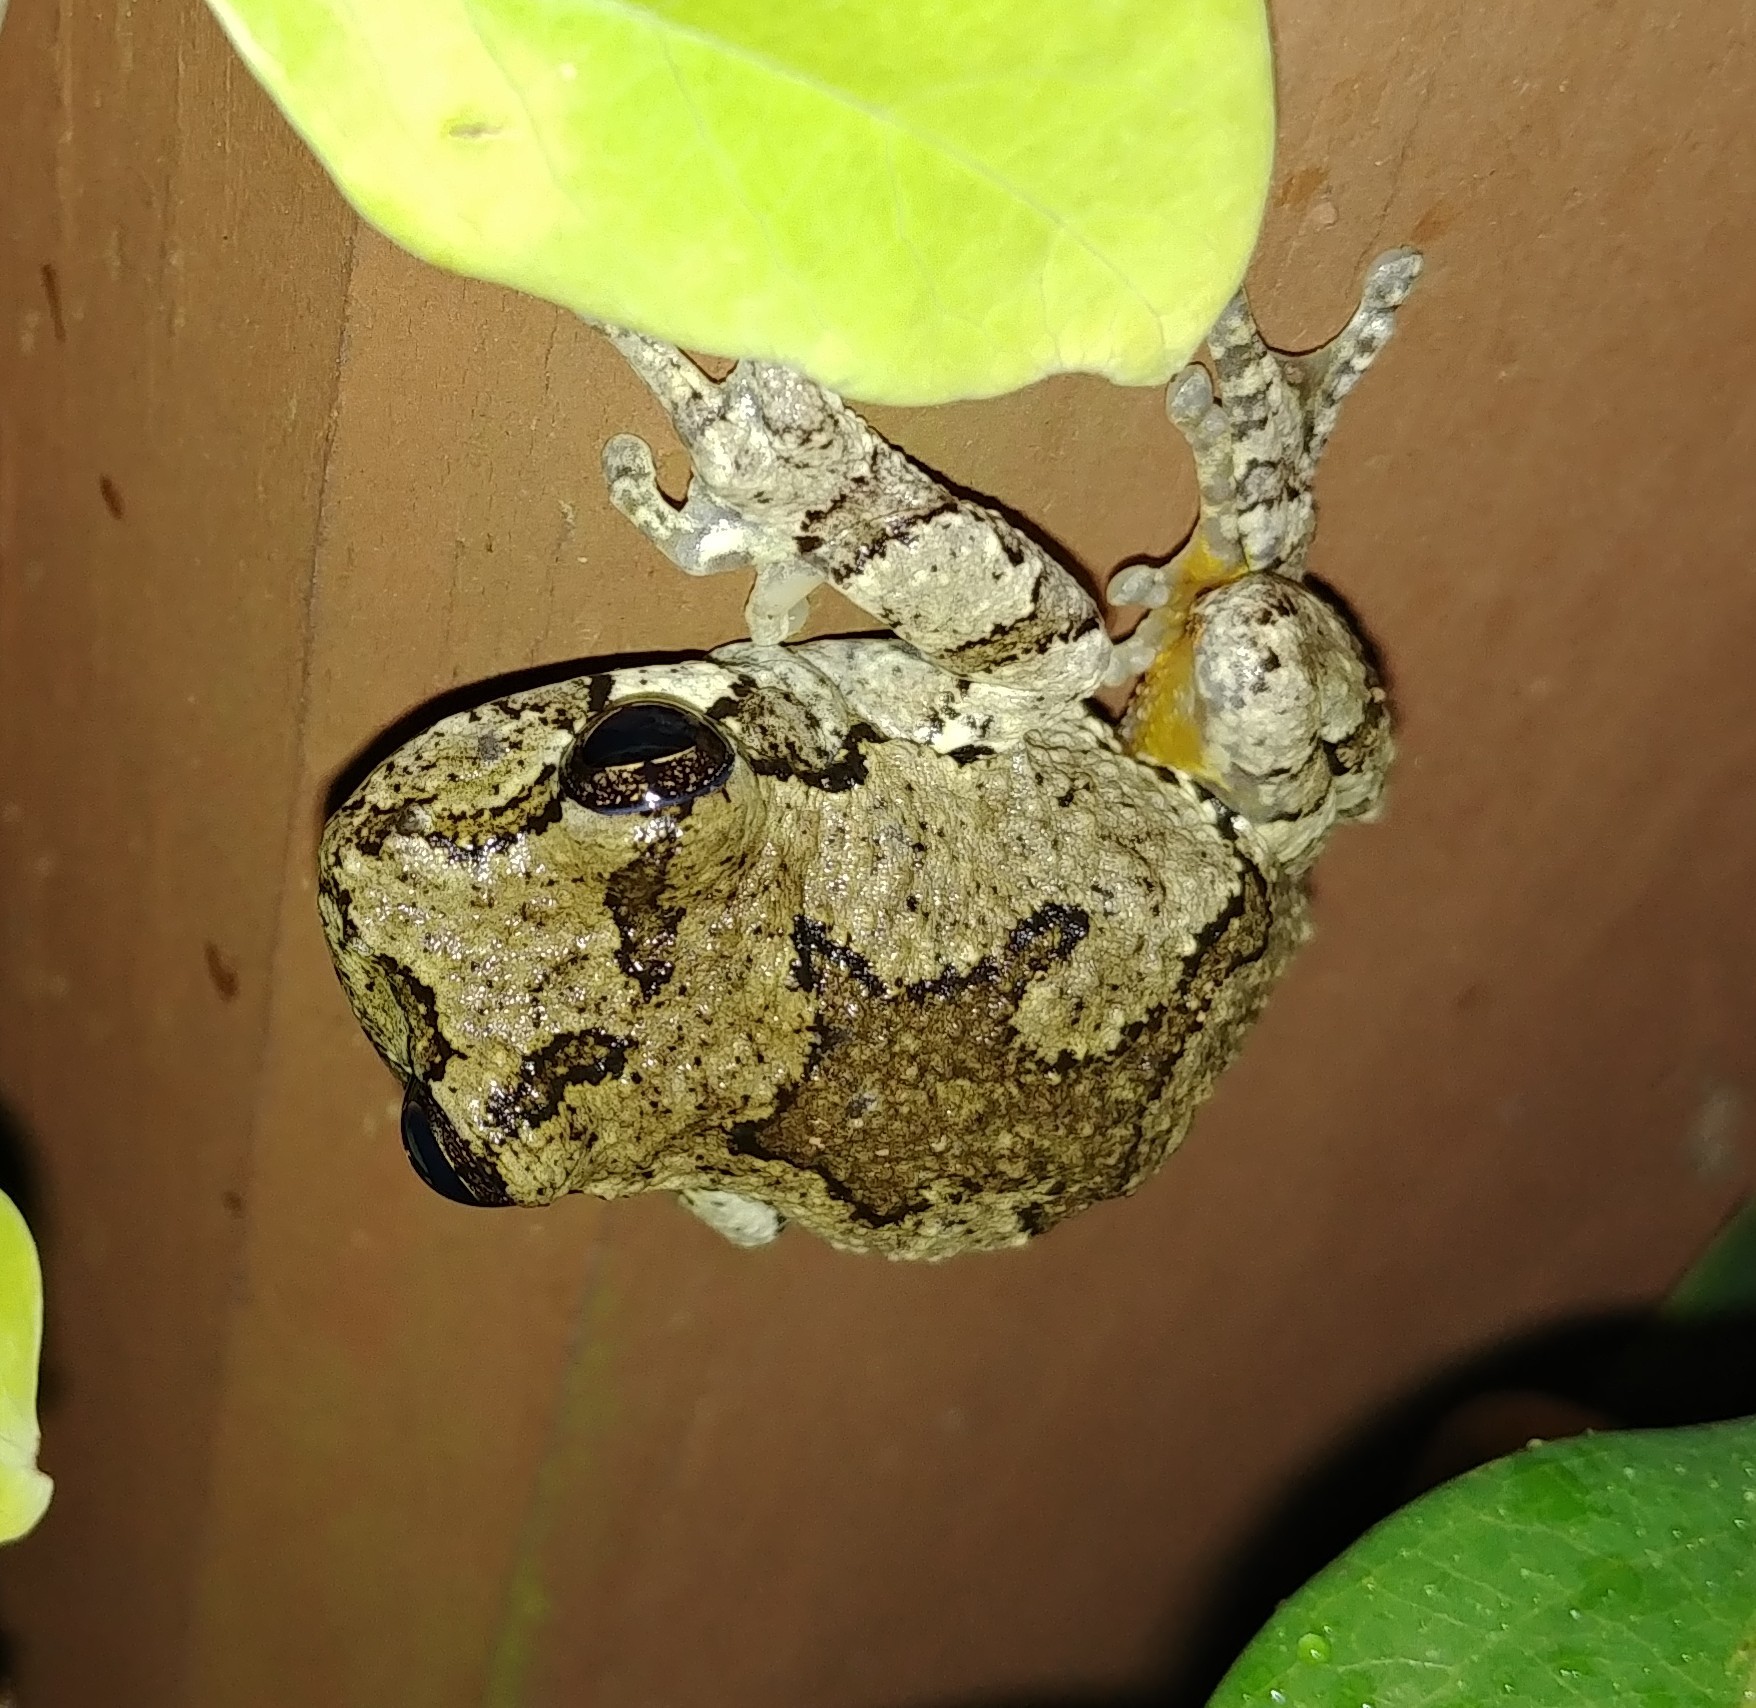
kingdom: Animalia
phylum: Chordata
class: Amphibia
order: Anura
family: Hylidae
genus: Dryophytes
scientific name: Dryophytes chrysoscelis
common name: Cope's gray treefrog
